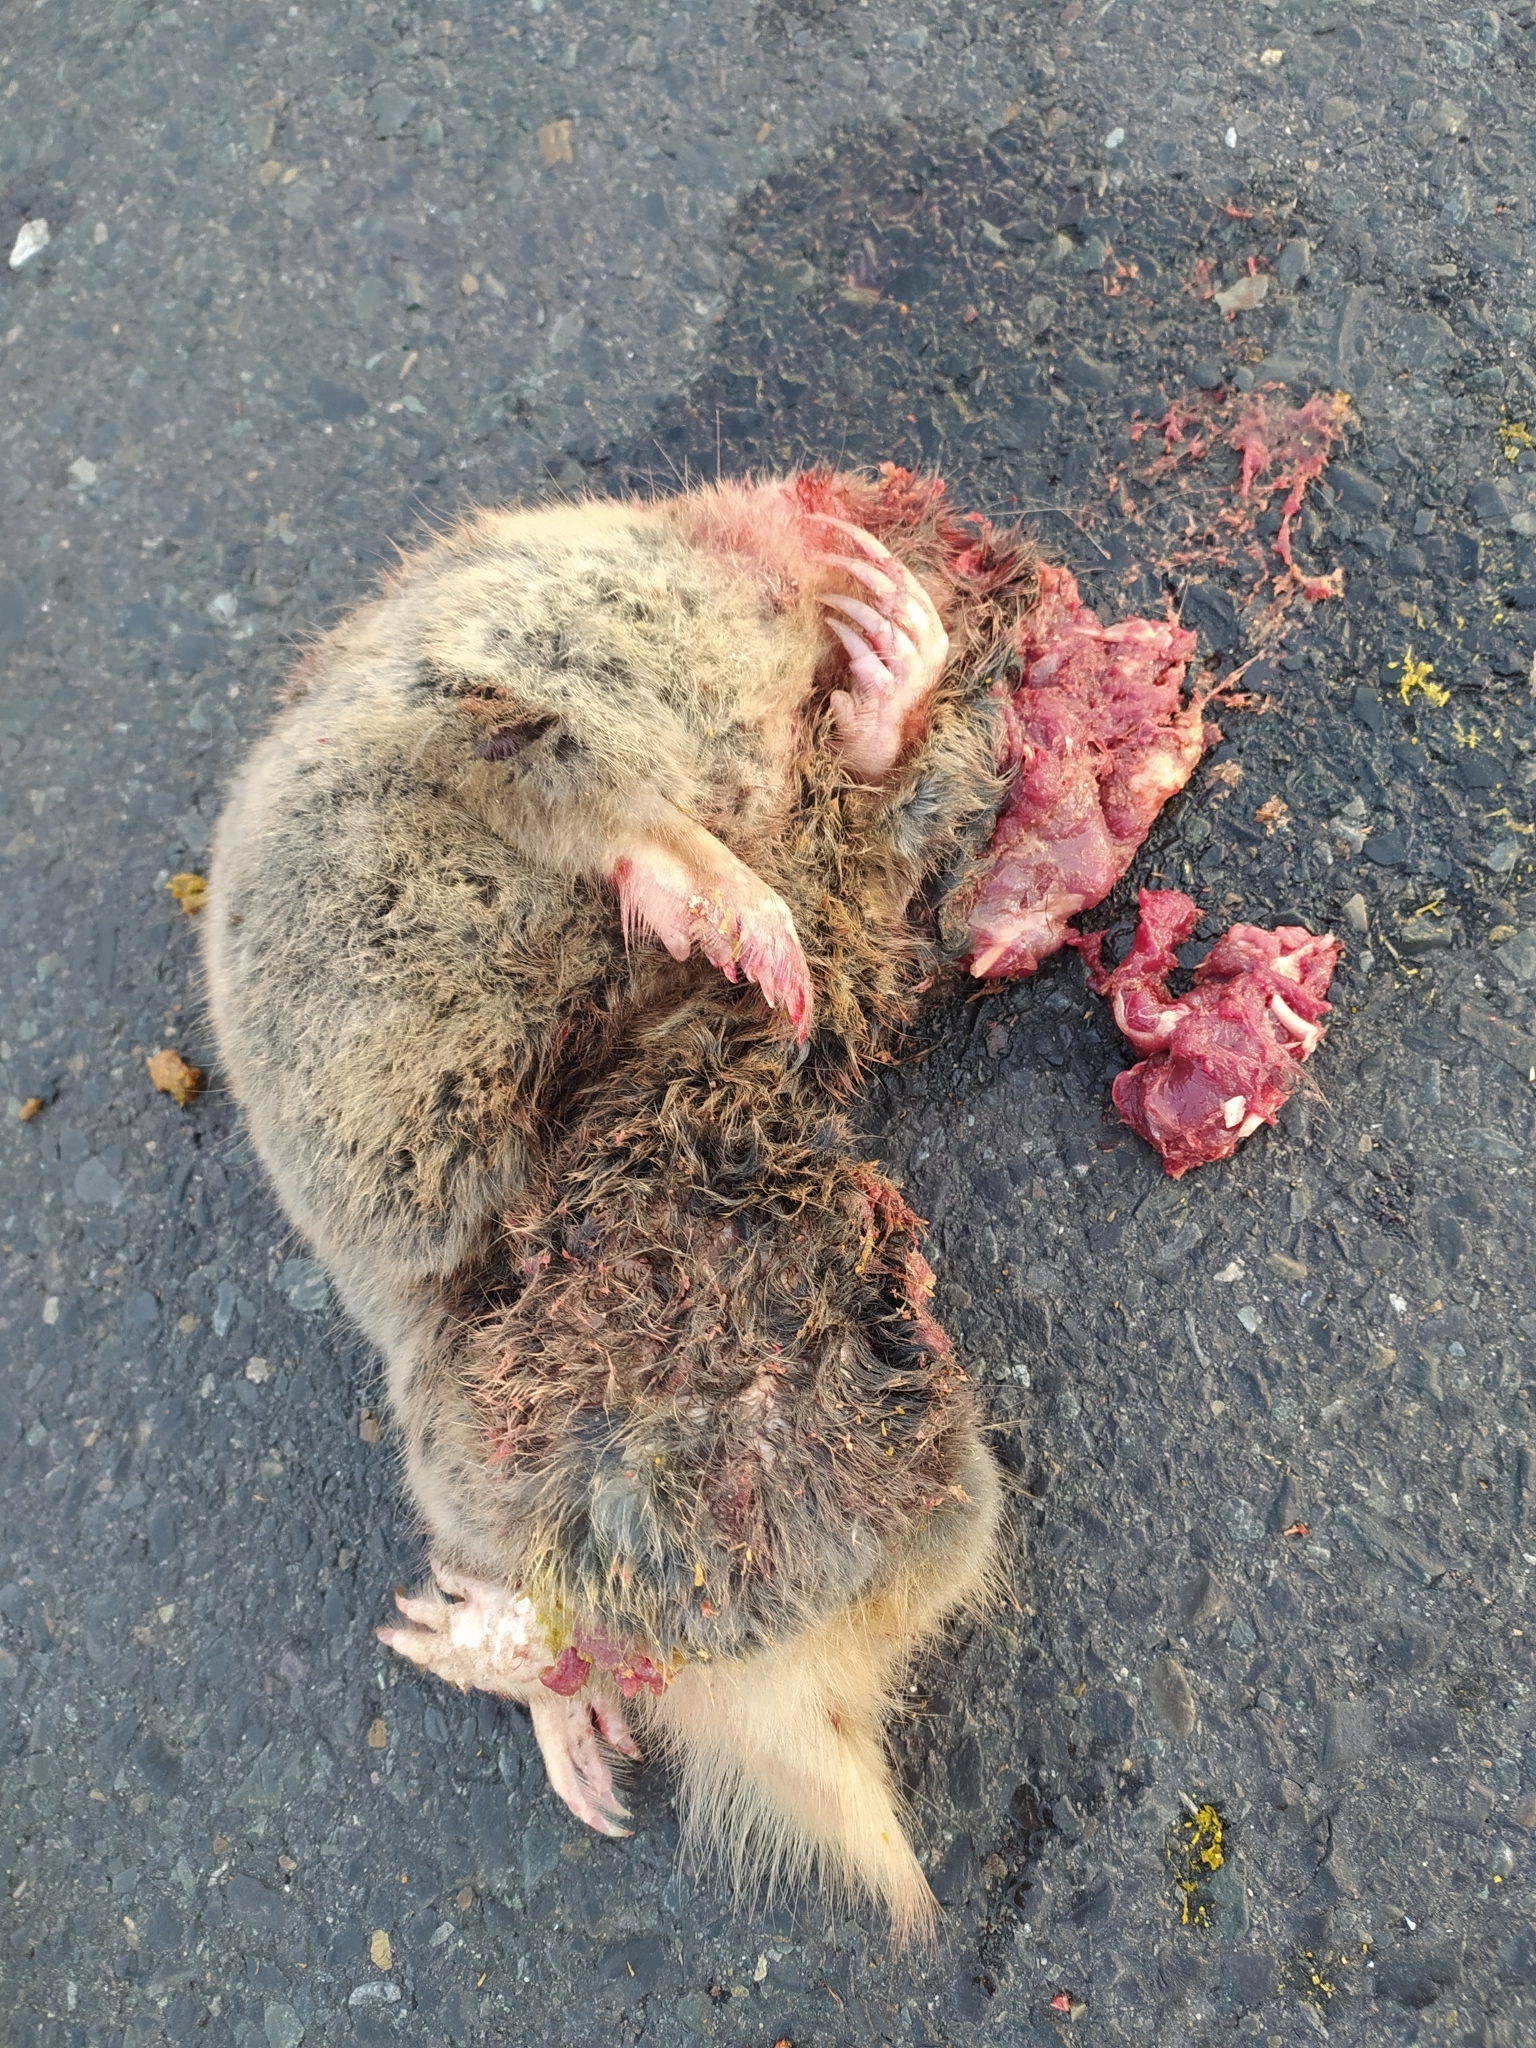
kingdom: Animalia
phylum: Chordata
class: Mammalia
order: Rodentia
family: Bathyergidae
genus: Bathyergus
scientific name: Bathyergus suillus
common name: Cape dune mole rat
